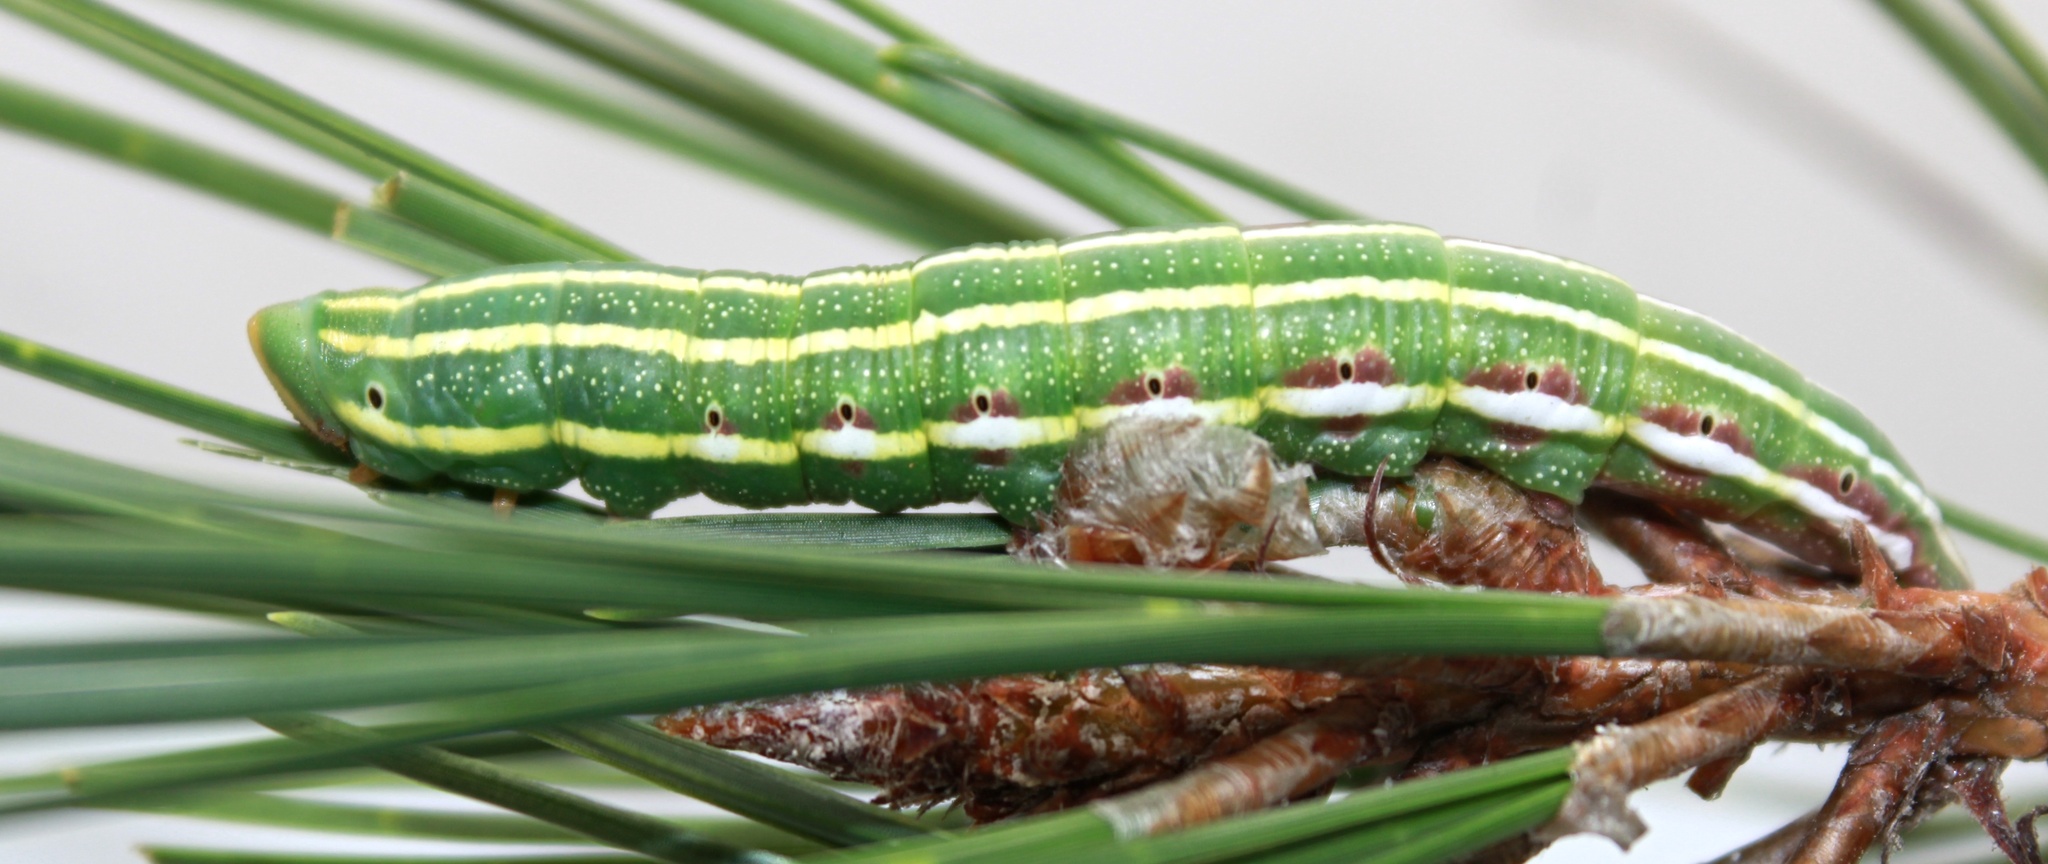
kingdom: Animalia
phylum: Arthropoda
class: Insecta
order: Lepidoptera
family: Sphingidae
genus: Lapara
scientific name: Lapara coniferarum
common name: Southern pine sphinx
